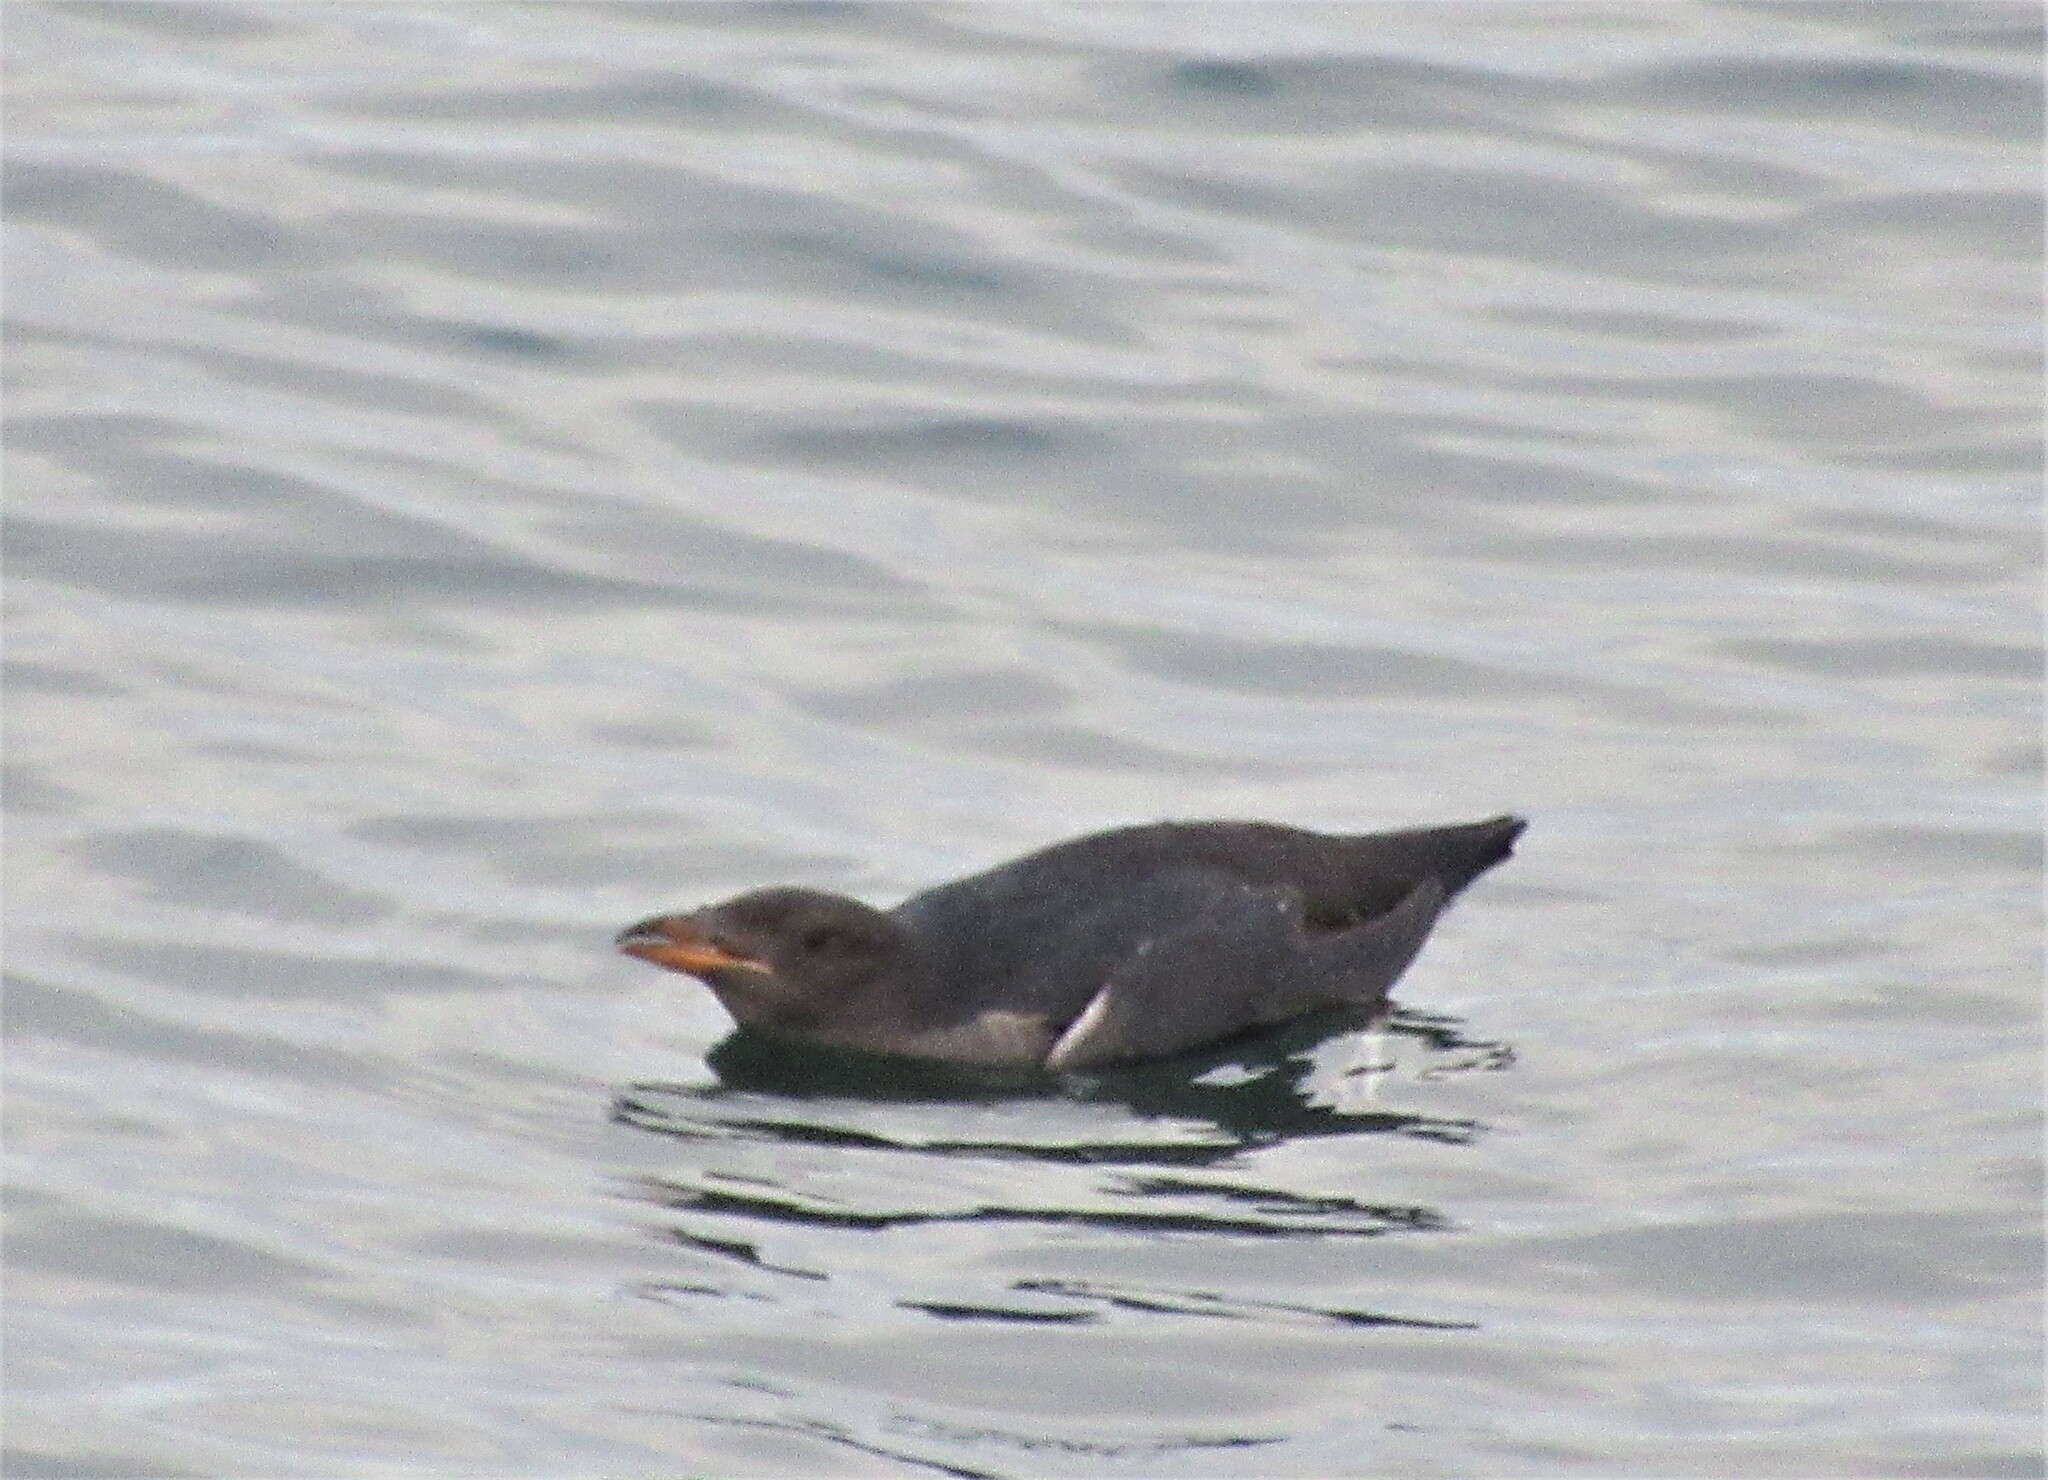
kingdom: Animalia
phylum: Chordata
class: Aves
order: Charadriiformes
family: Alcidae
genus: Cerorhinca
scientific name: Cerorhinca monocerata
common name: Rhinoceros auklet
